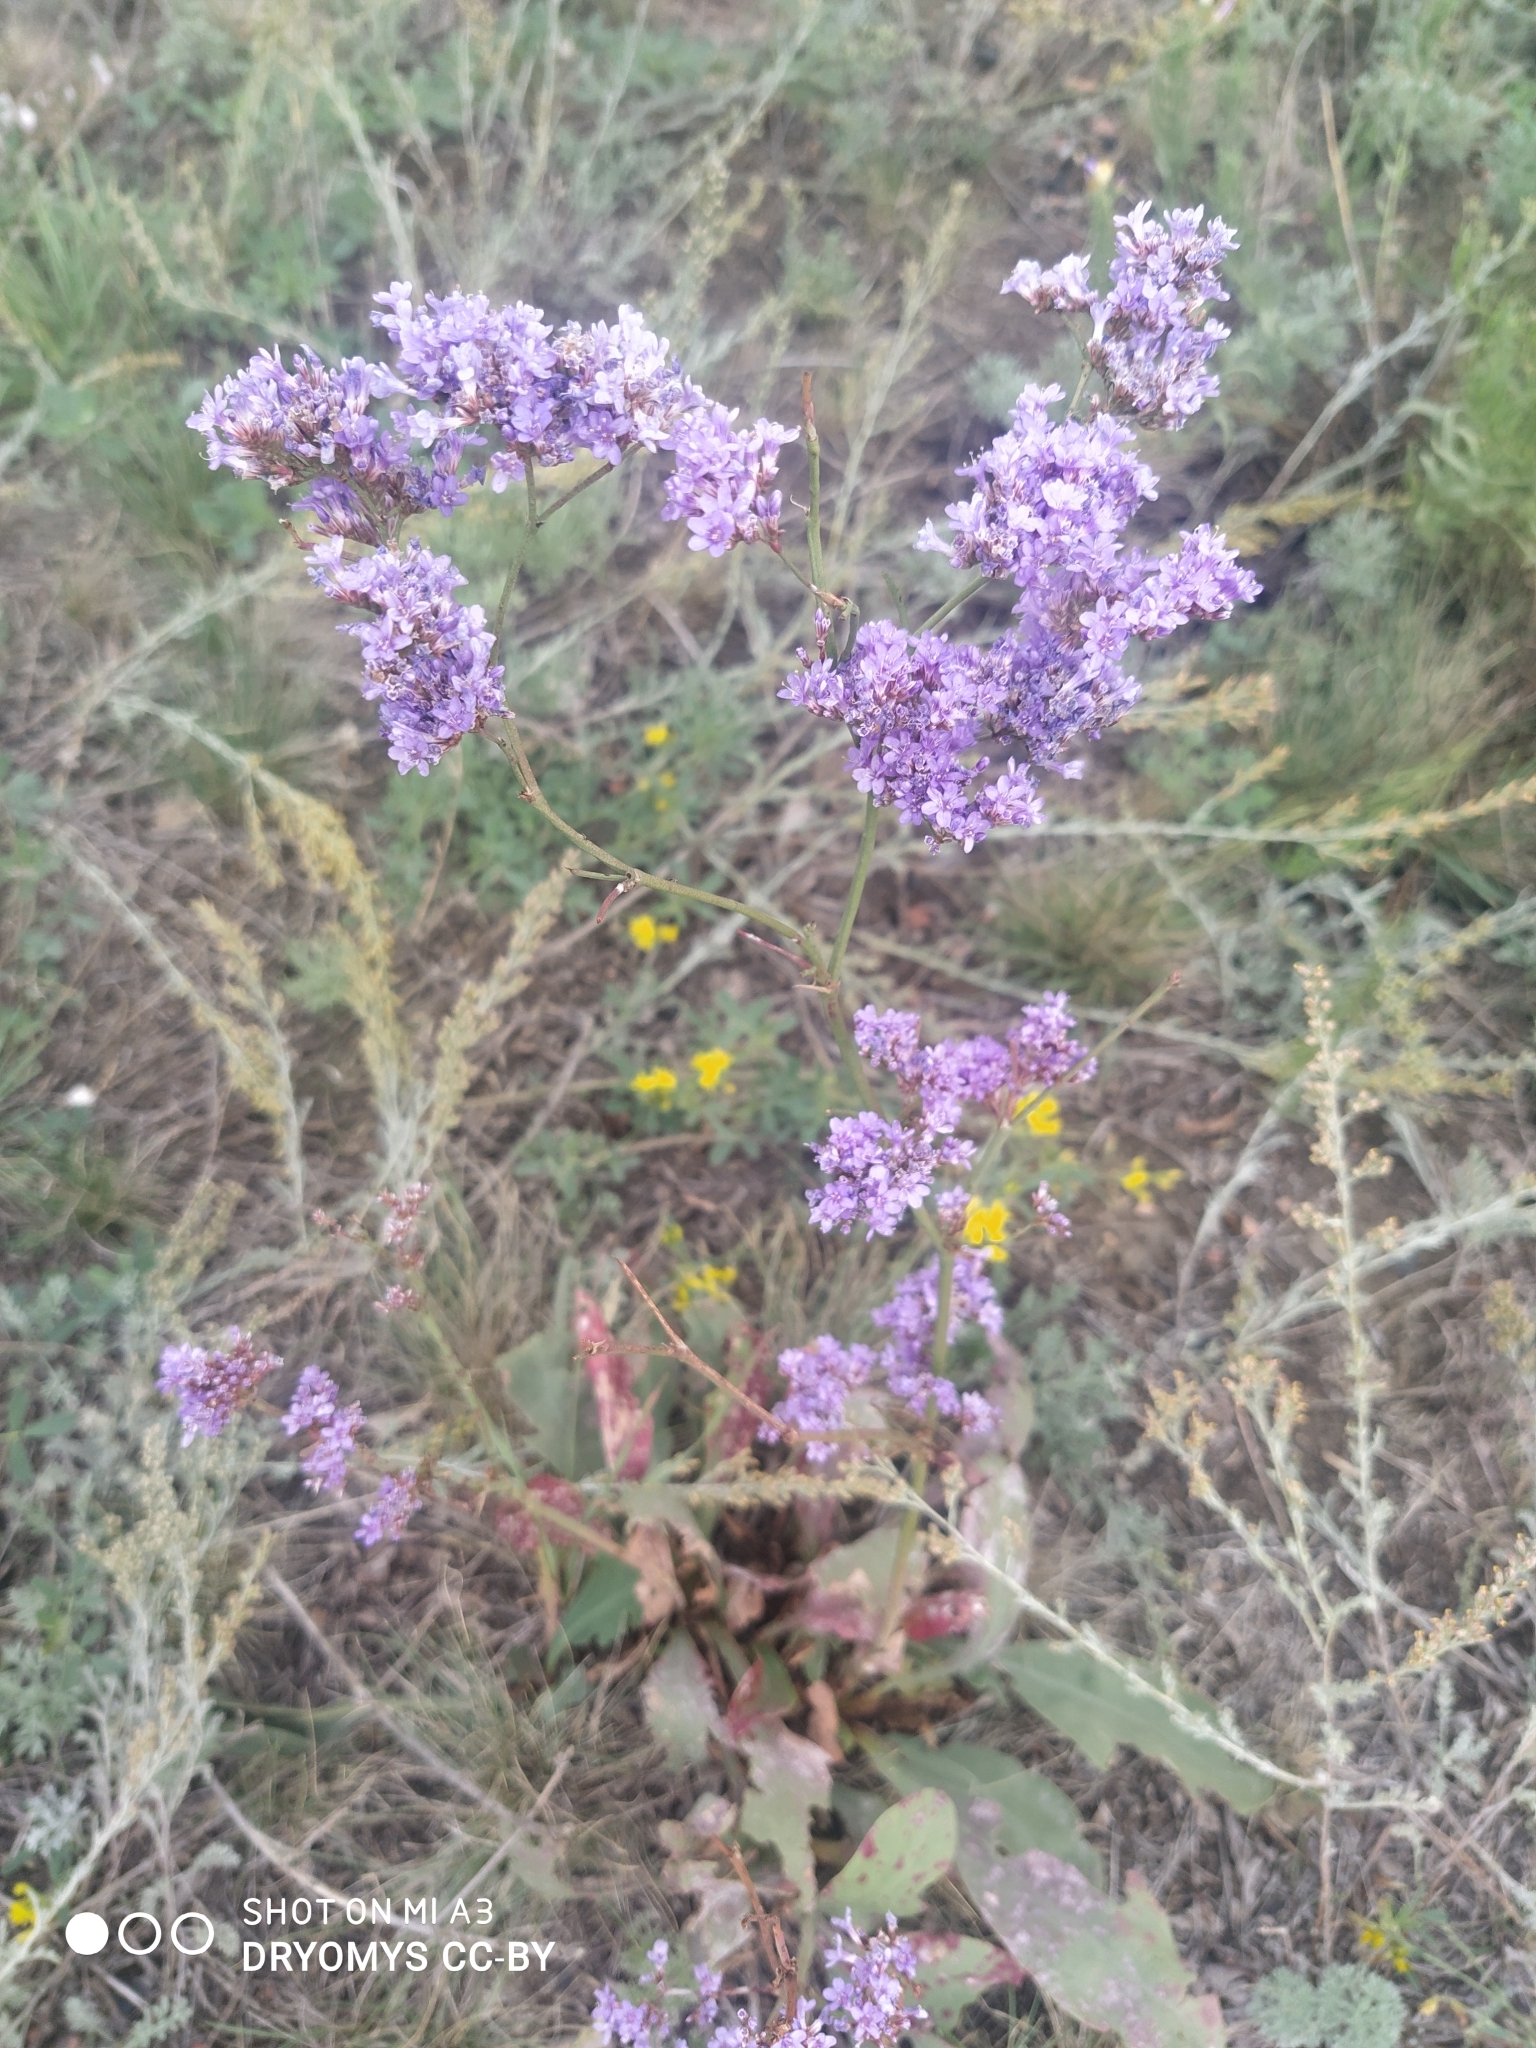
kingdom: Plantae
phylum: Tracheophyta
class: Magnoliopsida
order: Caryophyllales
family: Plumbaginaceae
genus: Limonium
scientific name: Limonium gmelini
